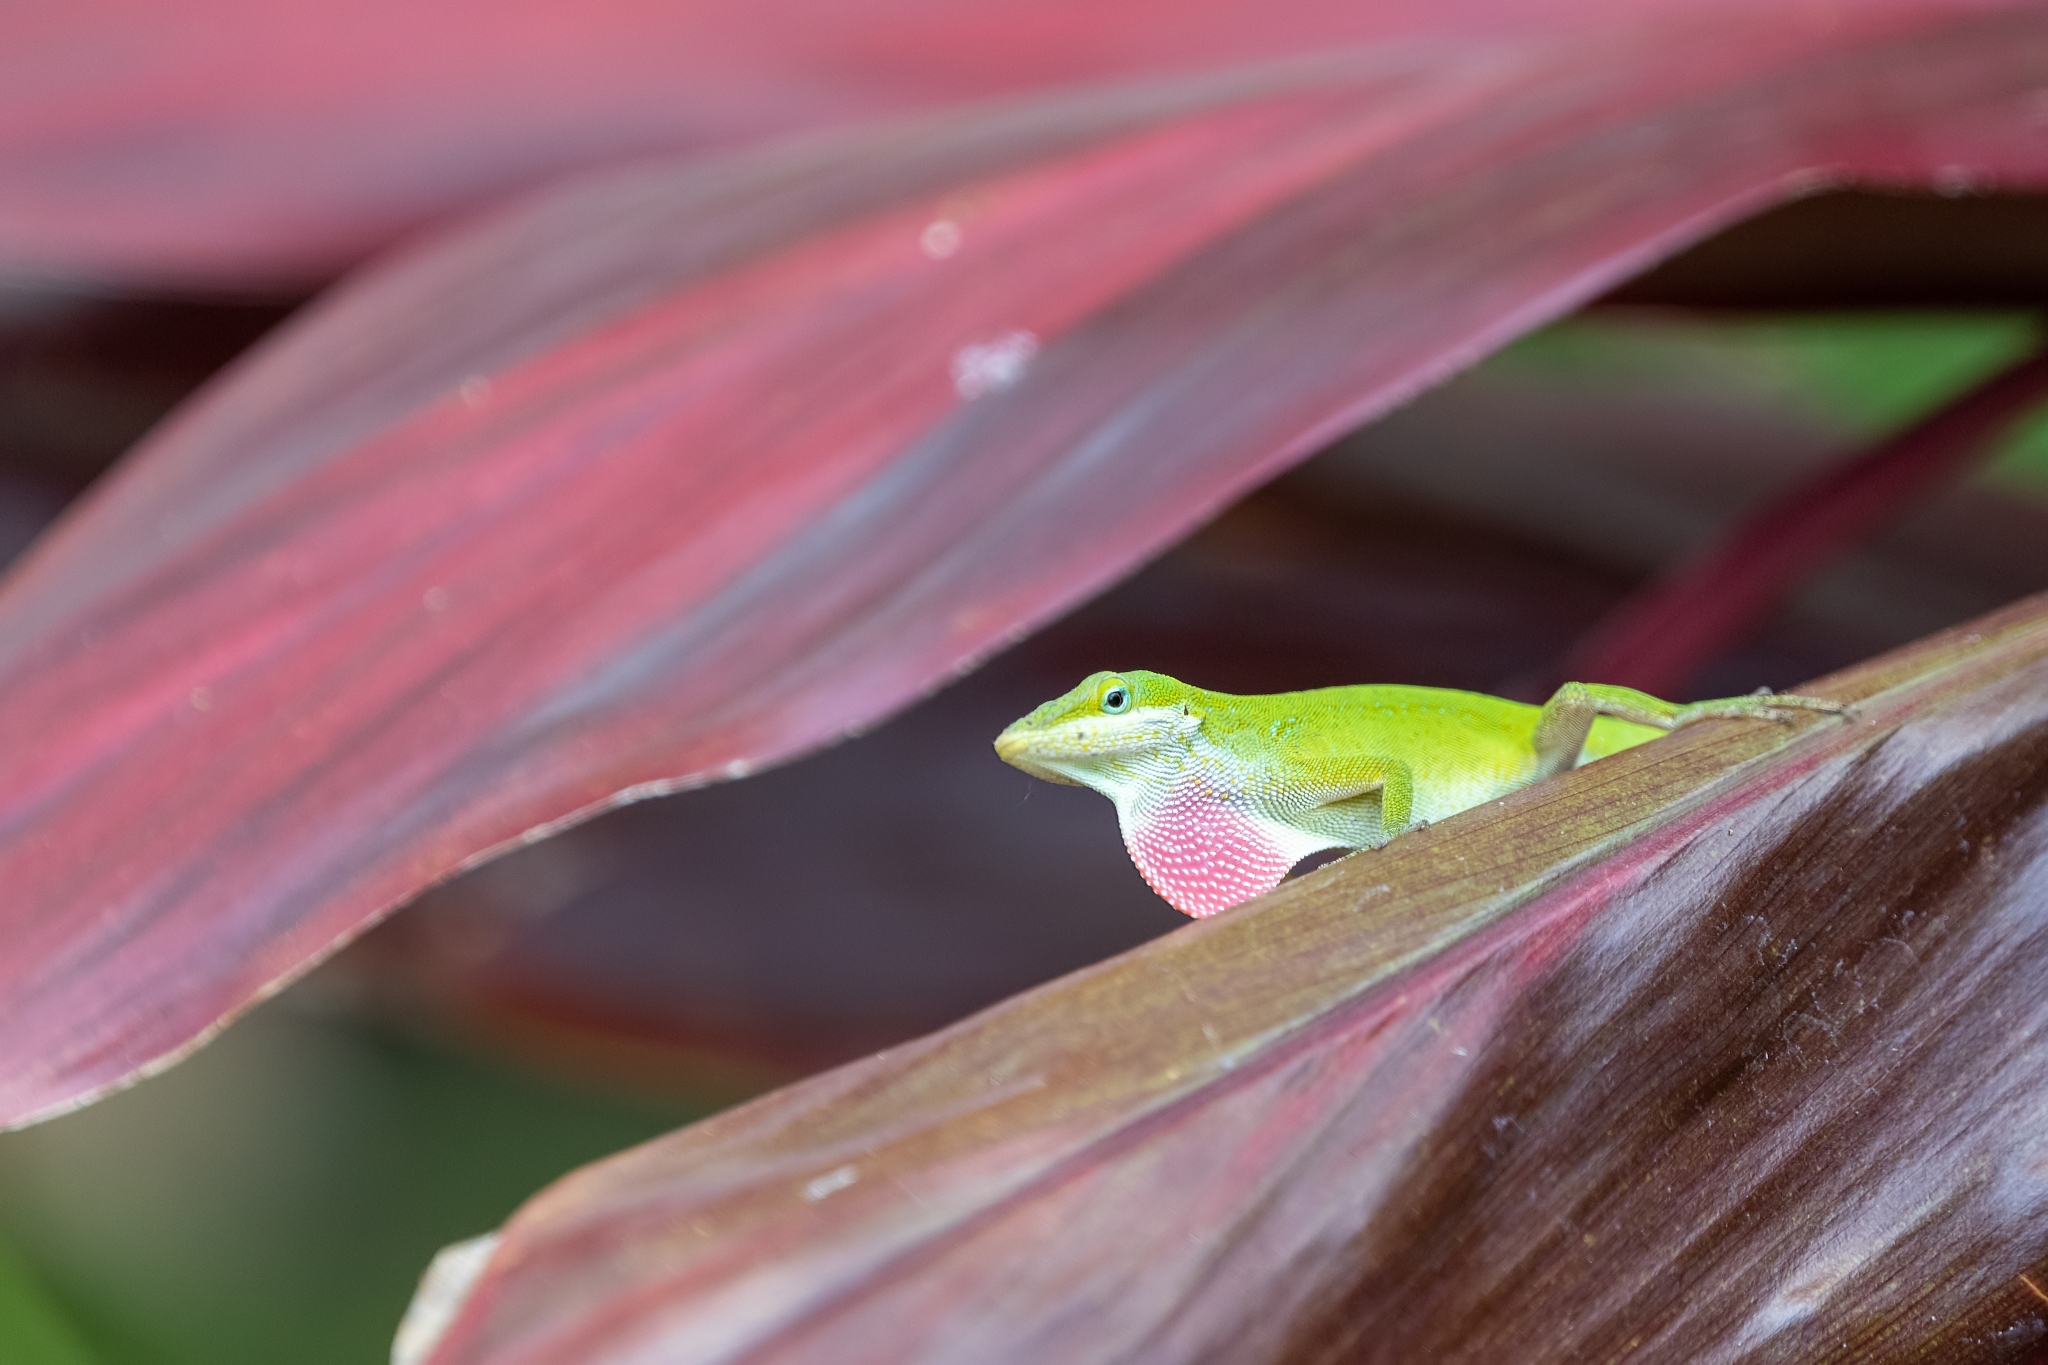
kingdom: Animalia
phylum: Chordata
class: Squamata
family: Dactyloidae
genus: Anolis
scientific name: Anolis carolinensis
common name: Green anole
